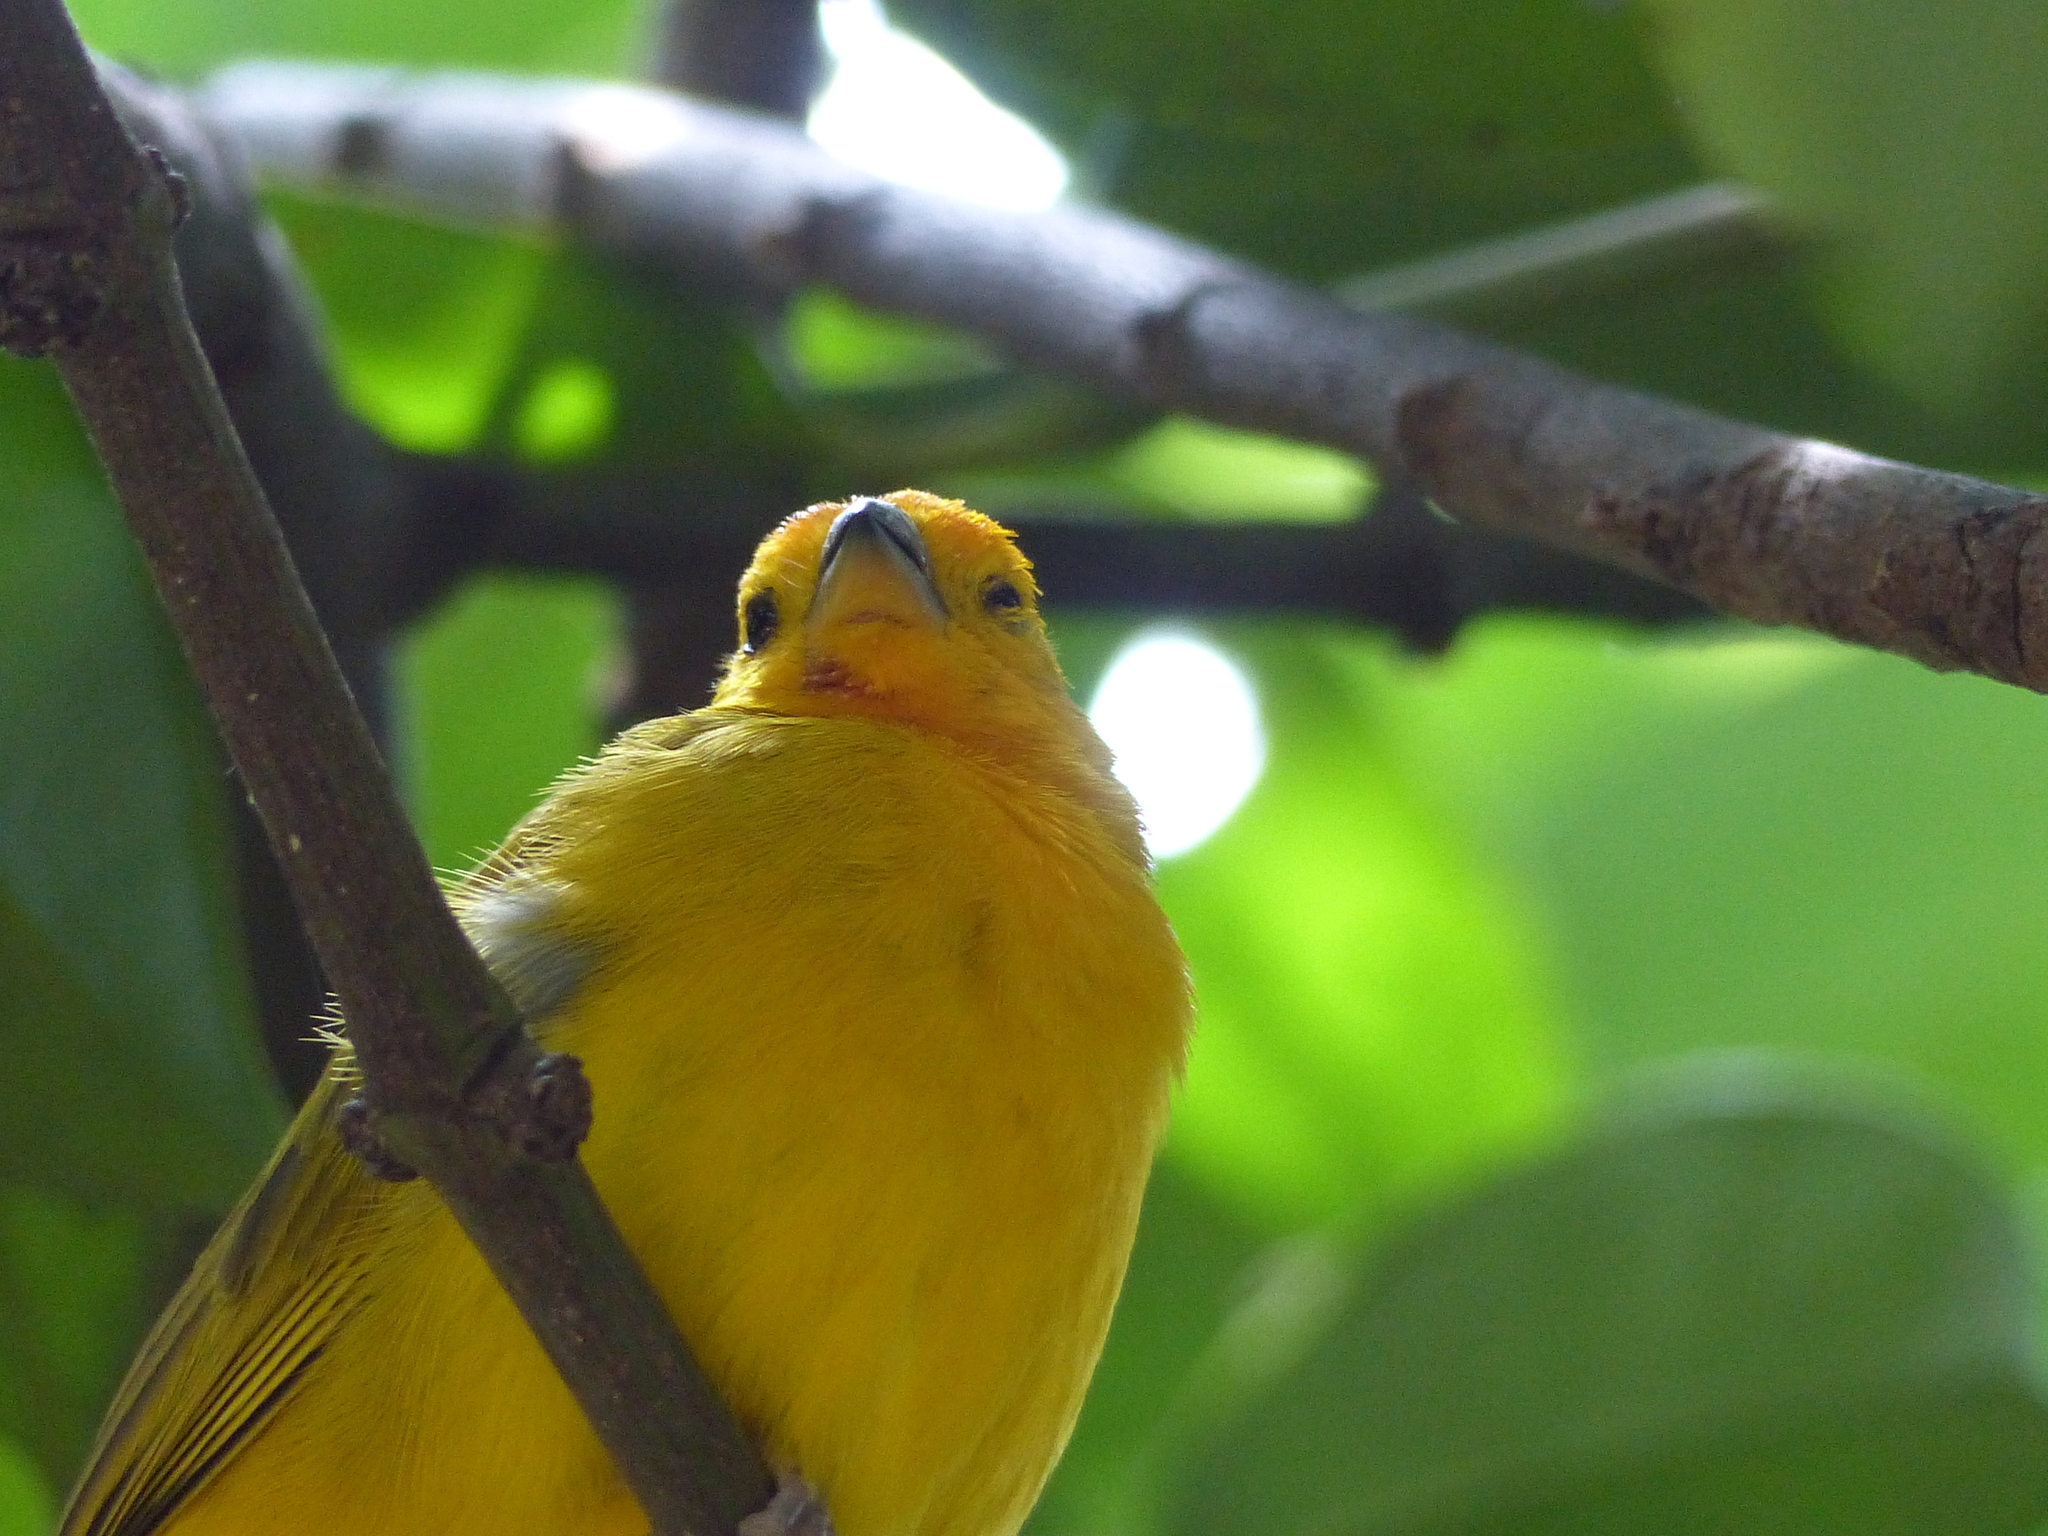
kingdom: Animalia
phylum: Chordata
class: Aves
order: Passeriformes
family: Thraupidae
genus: Sicalis
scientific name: Sicalis flaveola
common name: Saffron finch
